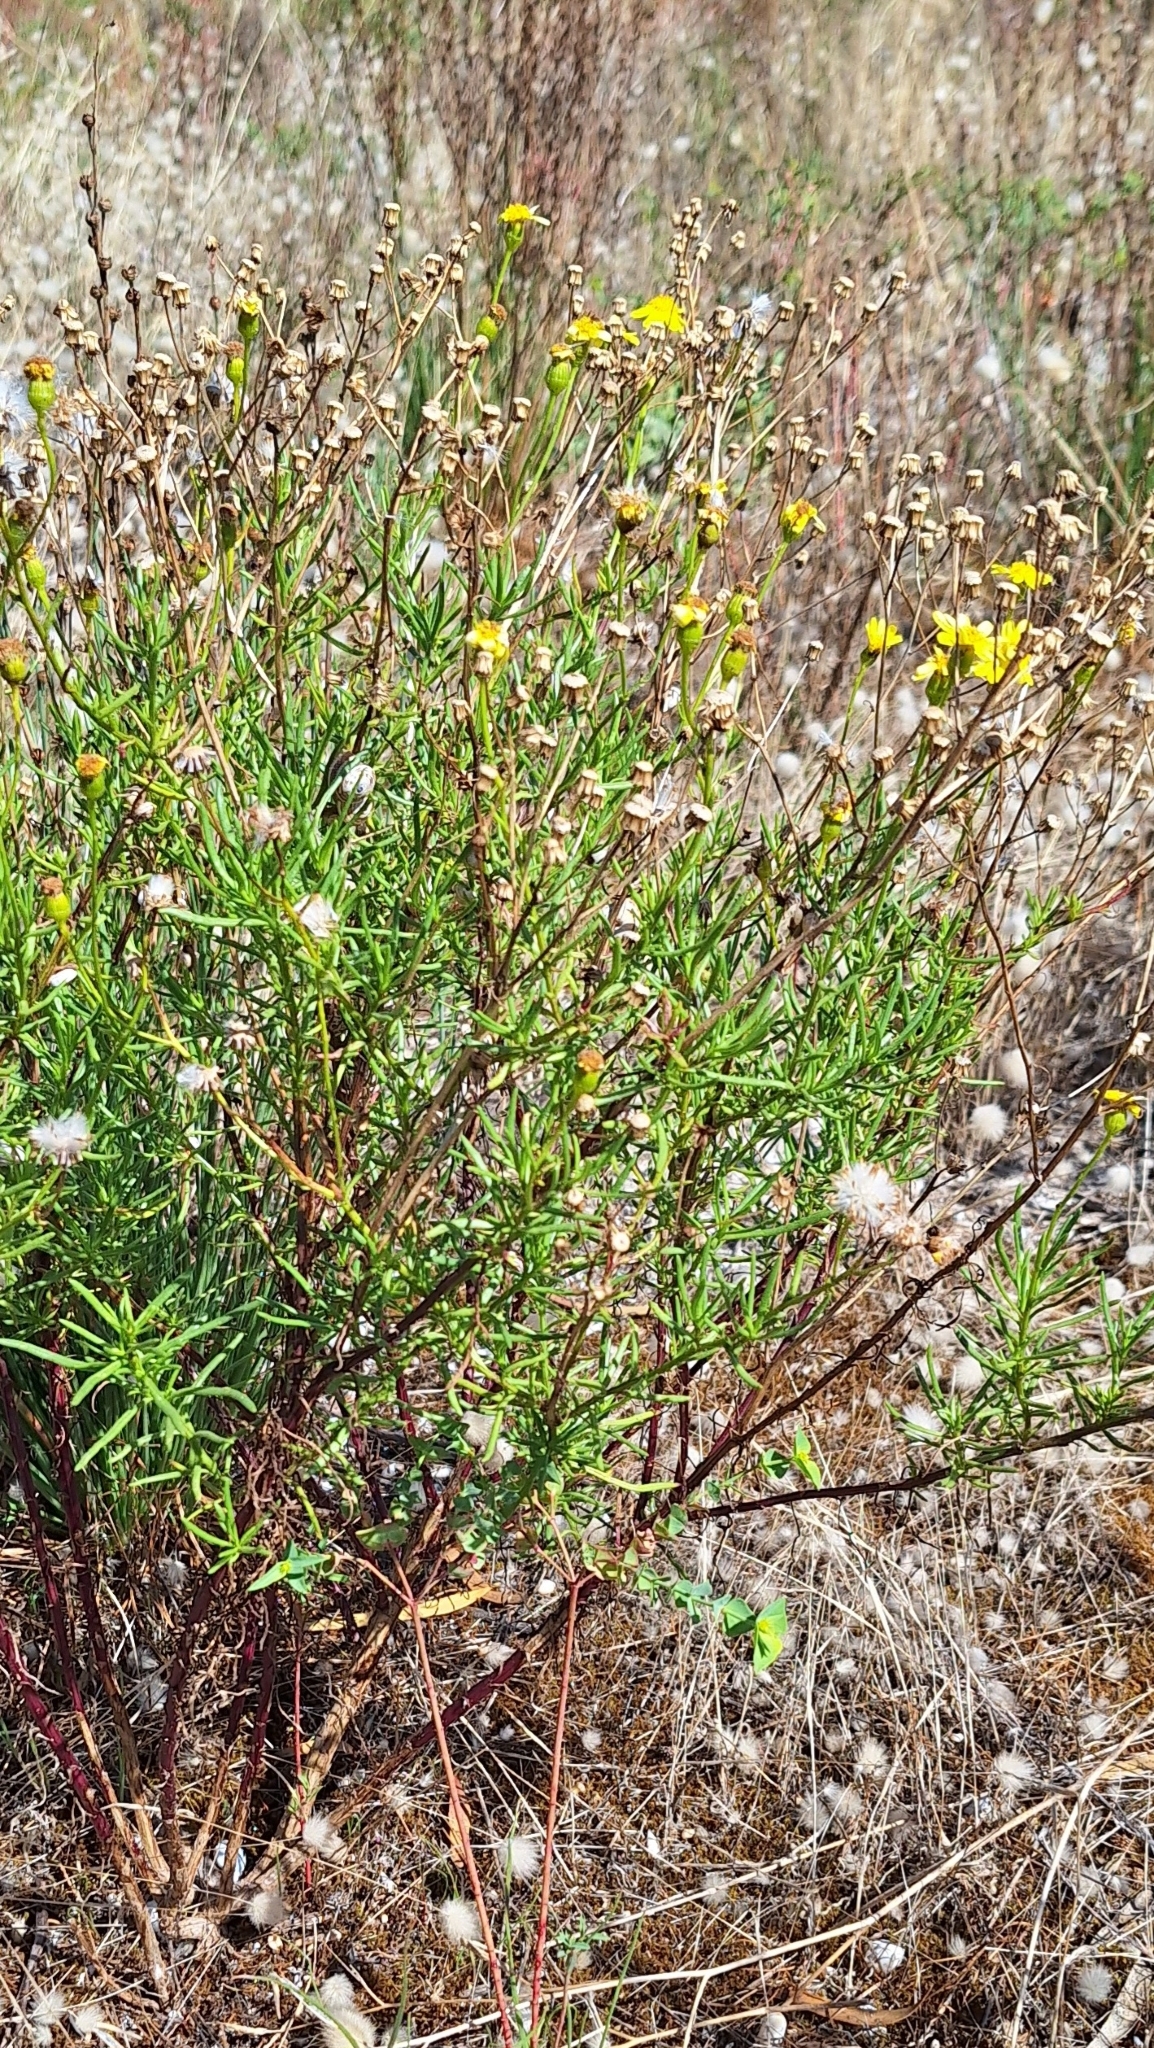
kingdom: Plantae
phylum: Tracheophyta
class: Magnoliopsida
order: Asterales
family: Asteraceae
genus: Senecio
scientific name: Senecio spanomerus
